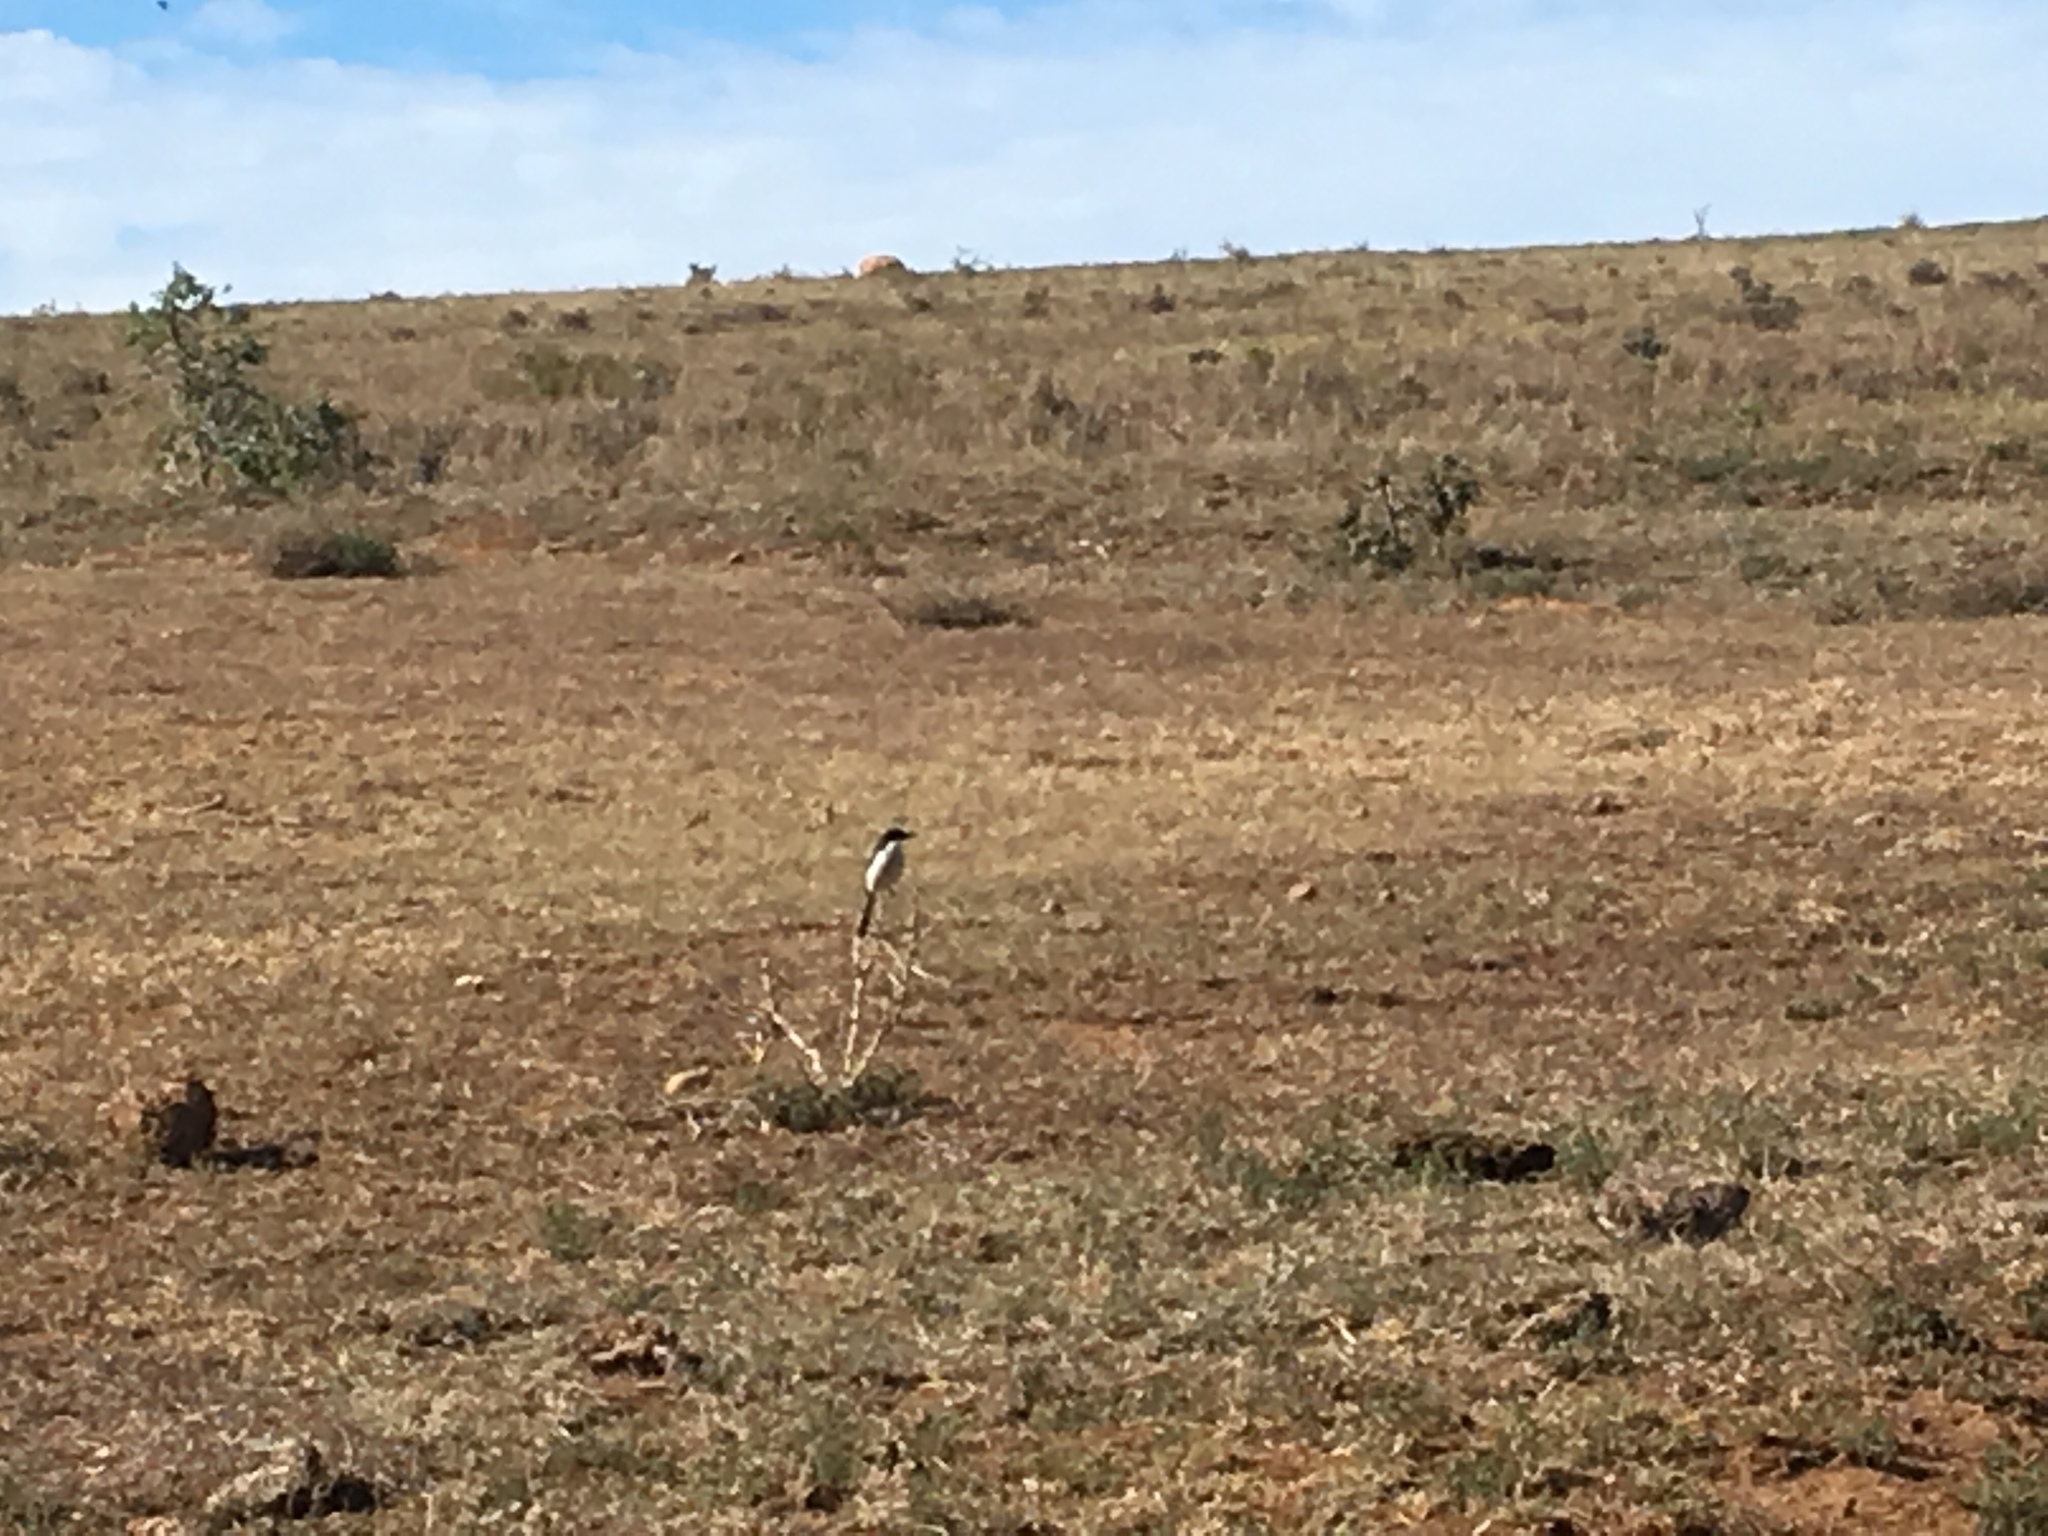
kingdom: Animalia
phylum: Chordata
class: Aves
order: Passeriformes
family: Laniidae
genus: Lanius
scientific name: Lanius collaris
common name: Southern fiscal
